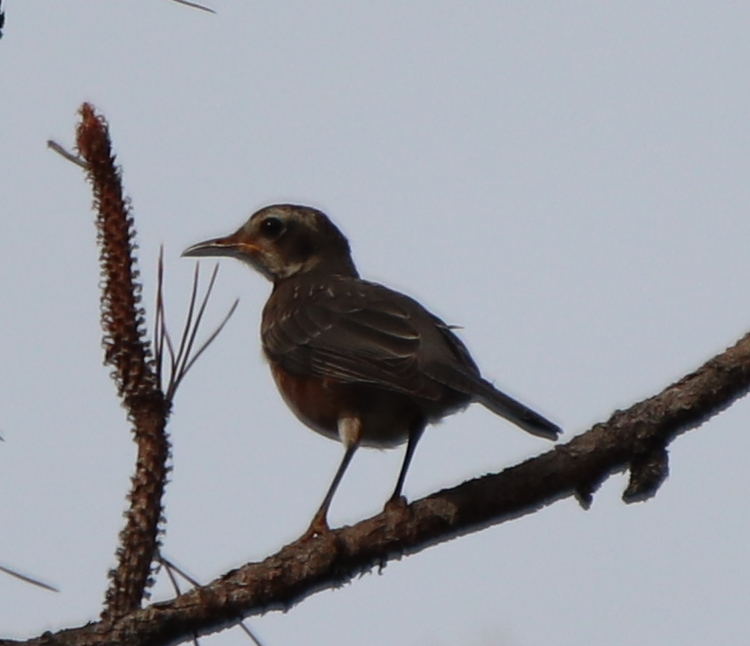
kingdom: Animalia
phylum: Chordata
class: Aves
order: Passeriformes
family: Turdidae
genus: Turdus
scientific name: Turdus migratorius
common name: American robin
